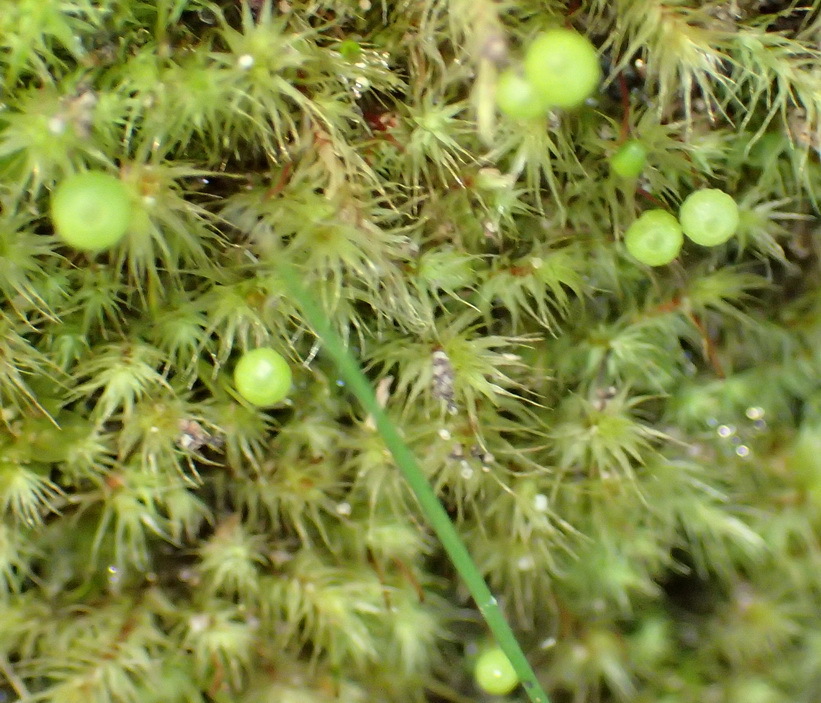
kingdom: Plantae
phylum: Bryophyta
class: Bryopsida
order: Bartramiales
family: Bartramiaceae
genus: Bartramia
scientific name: Bartramia hampeana
